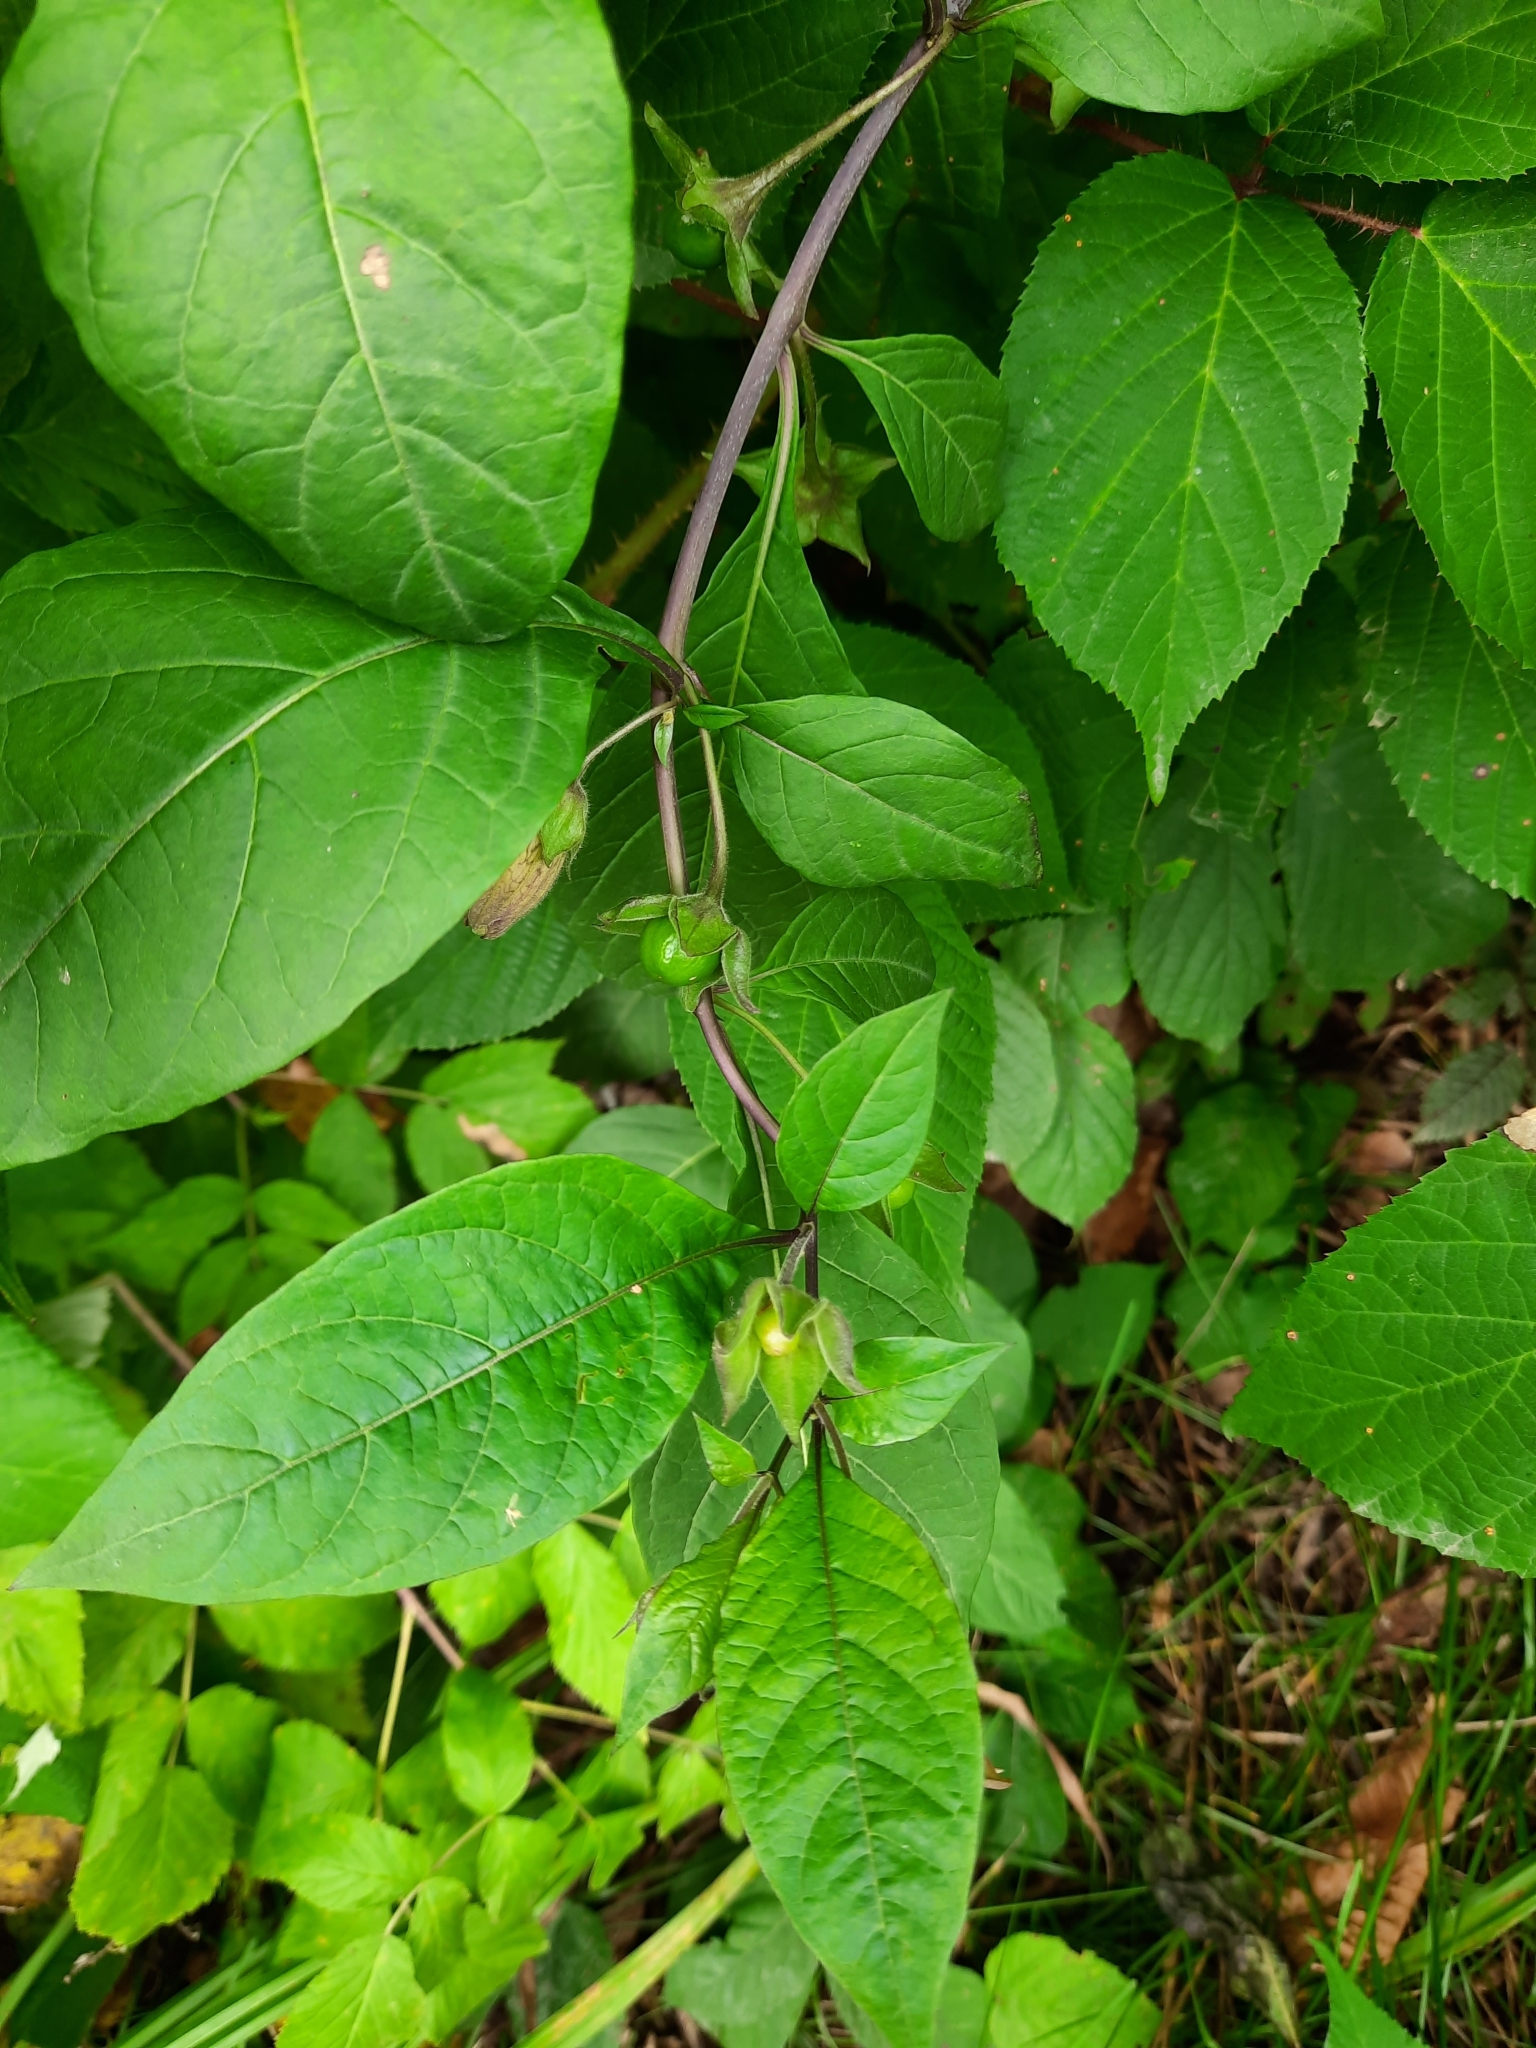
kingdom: Plantae
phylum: Tracheophyta
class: Magnoliopsida
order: Solanales
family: Solanaceae
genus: Atropa
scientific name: Atropa belladonna
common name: Deadly nightshade
